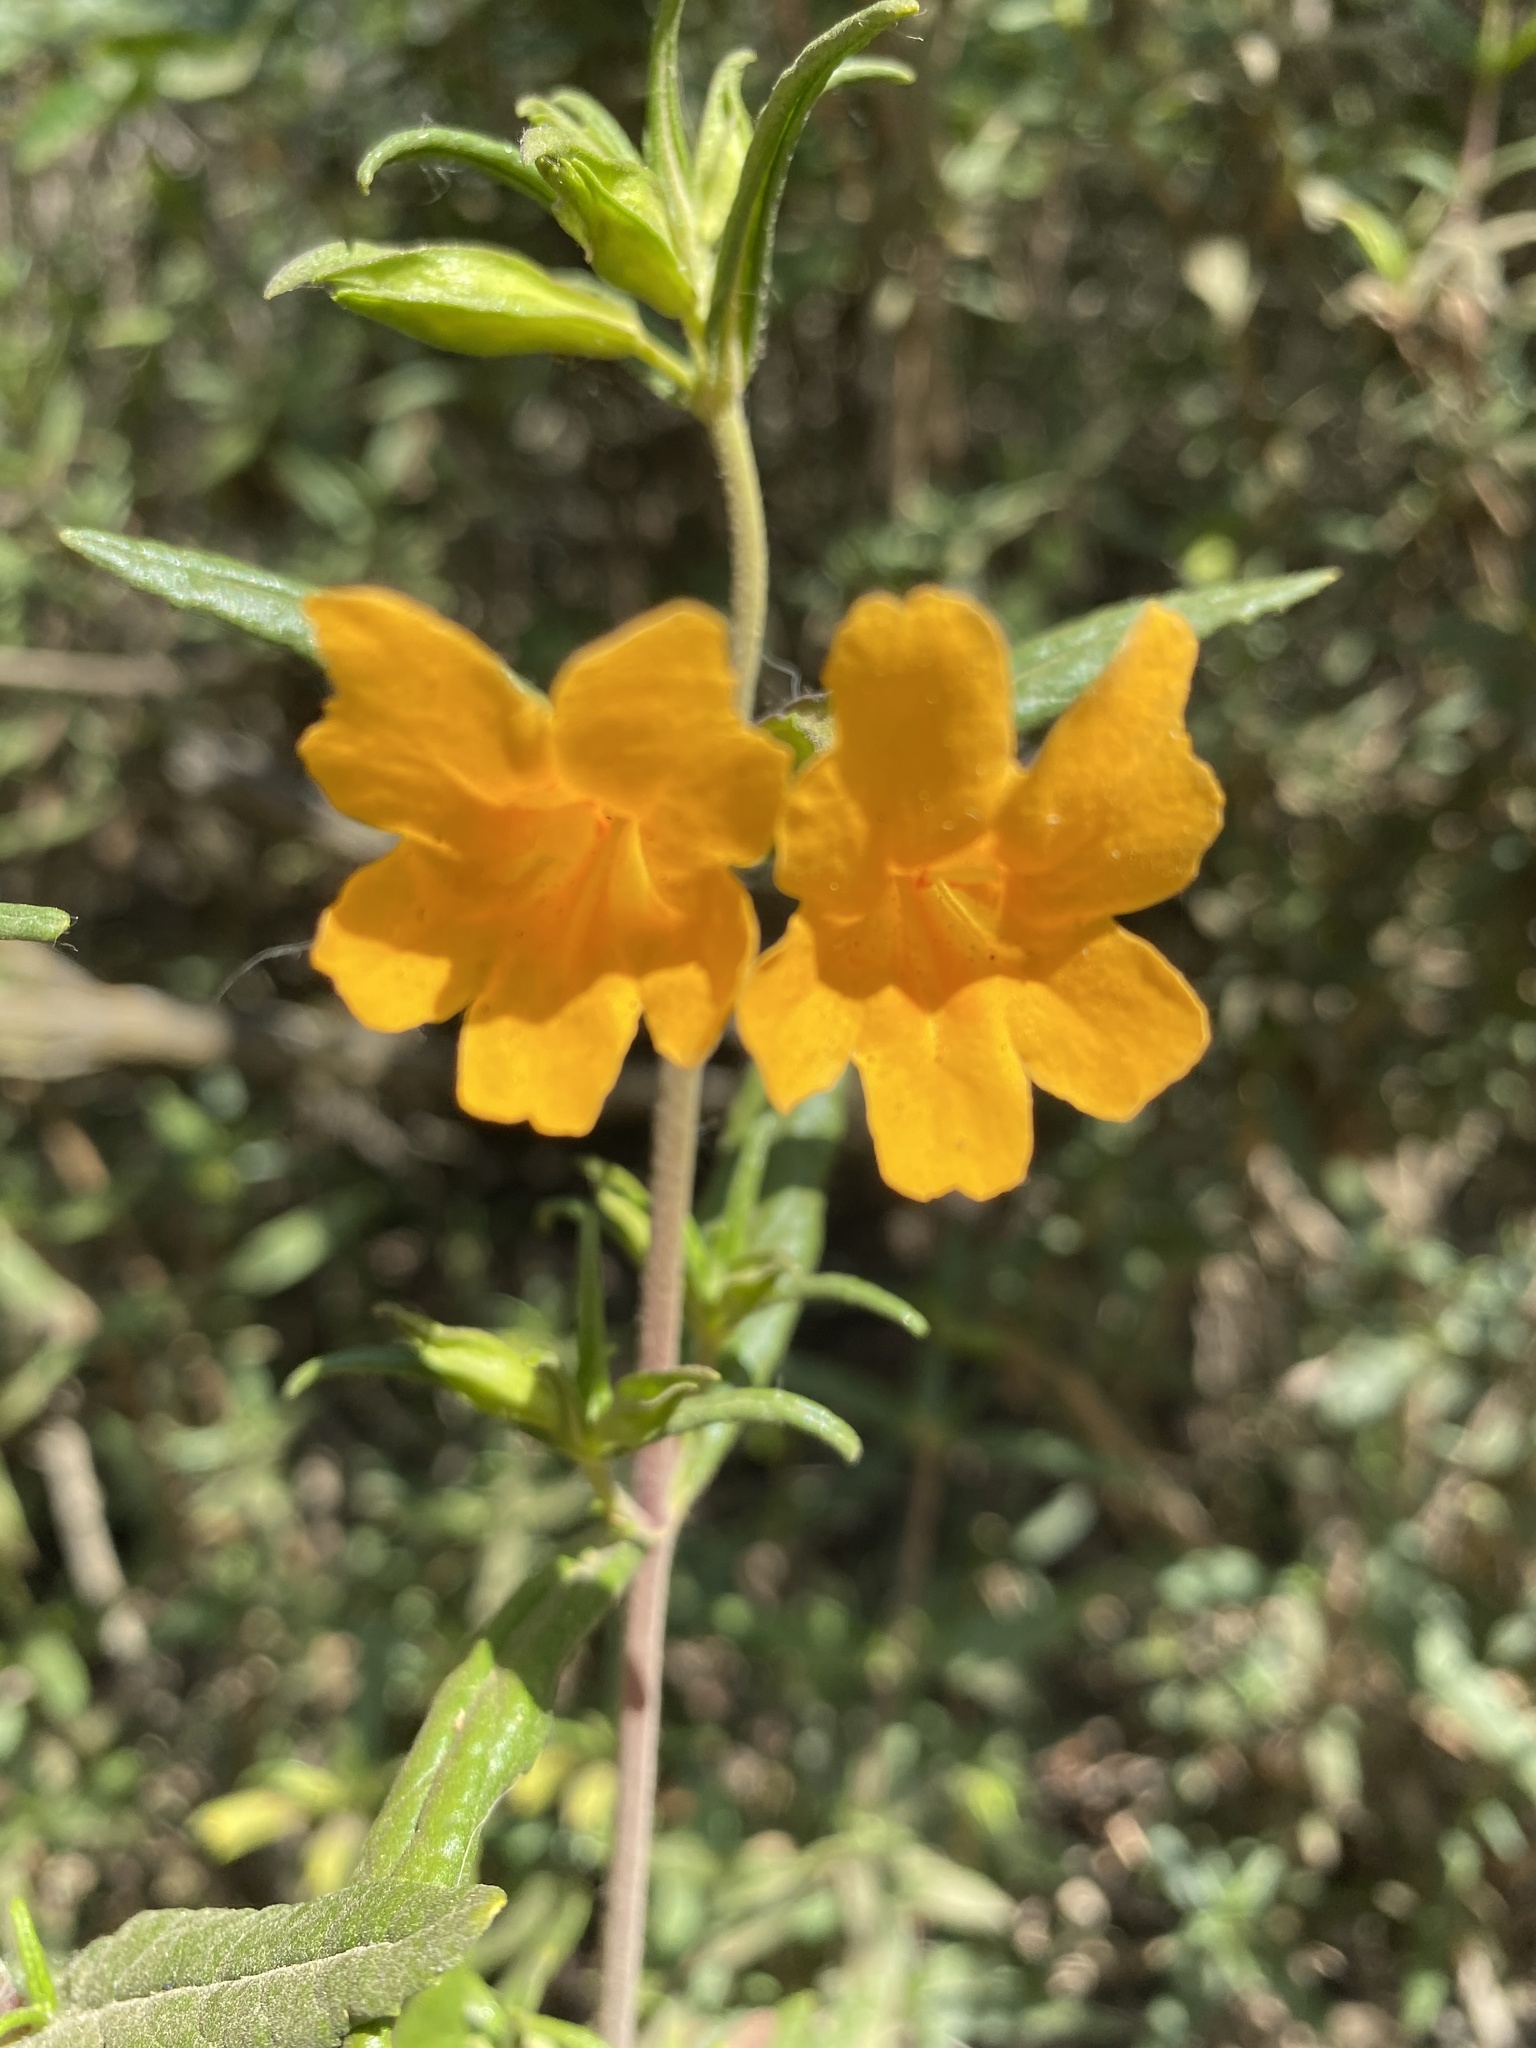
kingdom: Plantae
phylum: Tracheophyta
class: Magnoliopsida
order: Lamiales
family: Phrymaceae
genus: Diplacus
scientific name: Diplacus aurantiacus
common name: Bush monkey-flower
